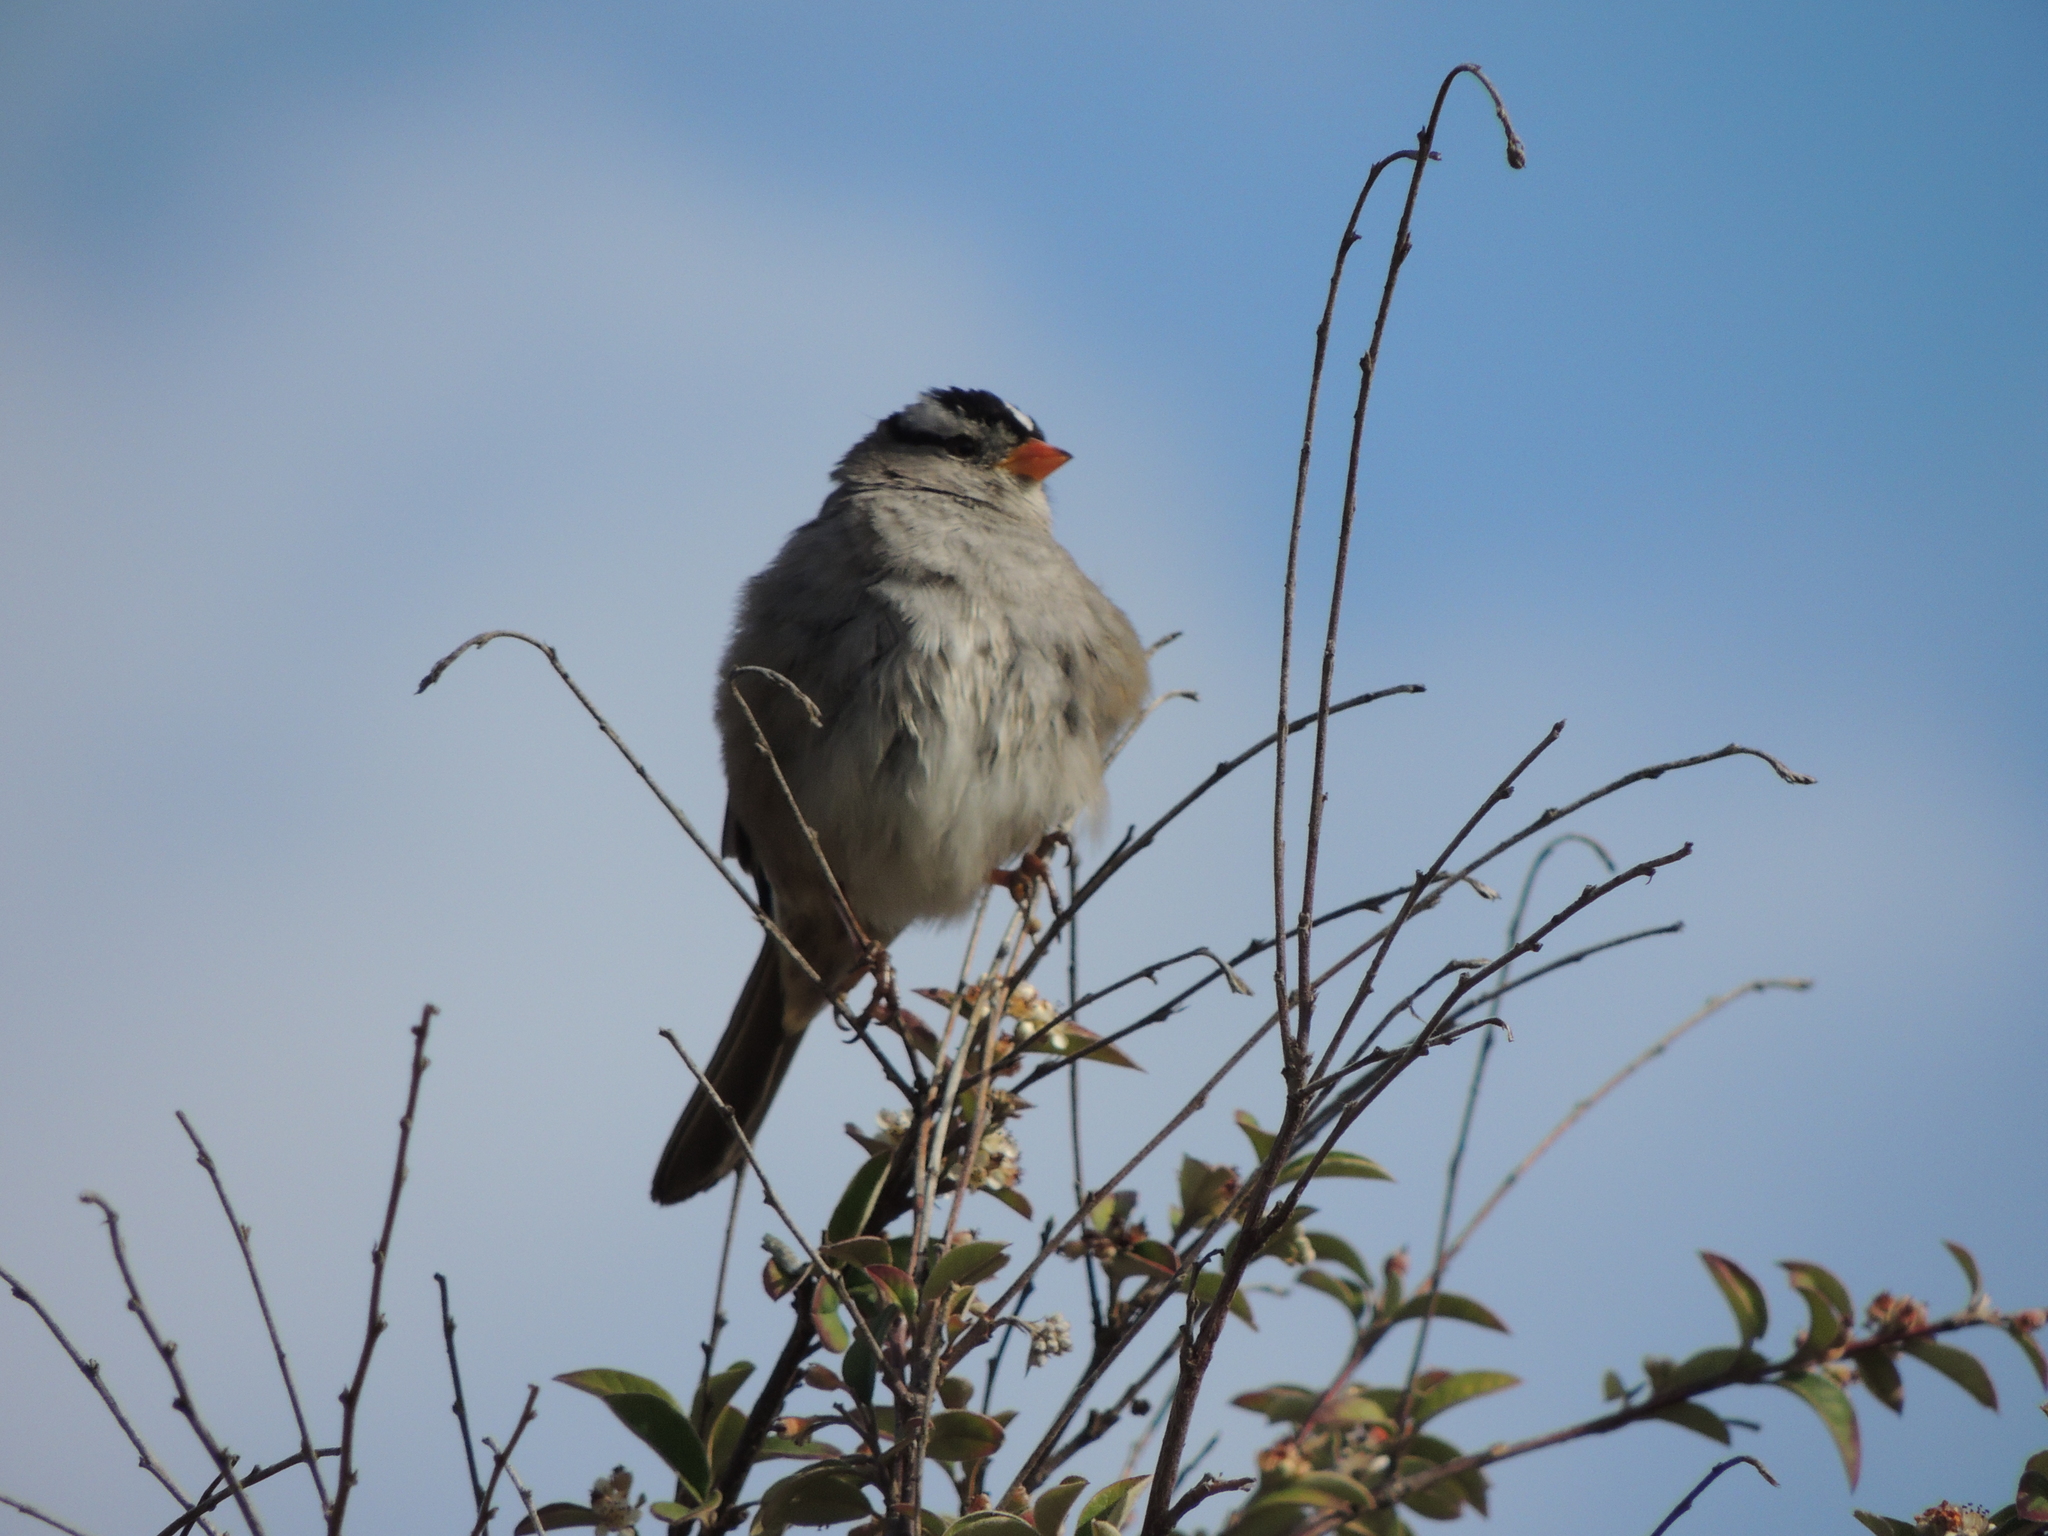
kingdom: Animalia
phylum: Chordata
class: Aves
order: Passeriformes
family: Passerellidae
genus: Zonotrichia
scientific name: Zonotrichia leucophrys
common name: White-crowned sparrow
